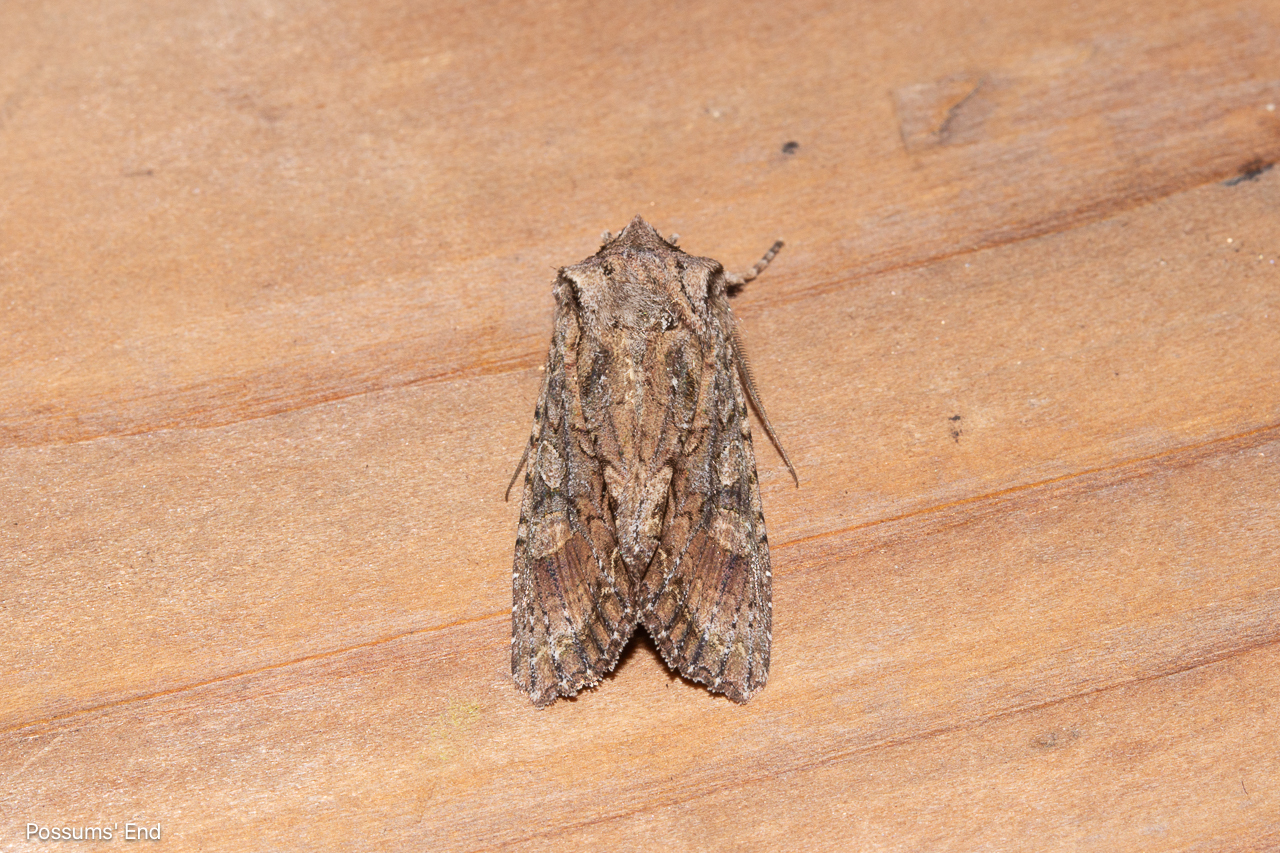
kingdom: Animalia
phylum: Arthropoda
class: Insecta
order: Lepidoptera
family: Noctuidae
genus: Ichneutica
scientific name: Ichneutica mutans
